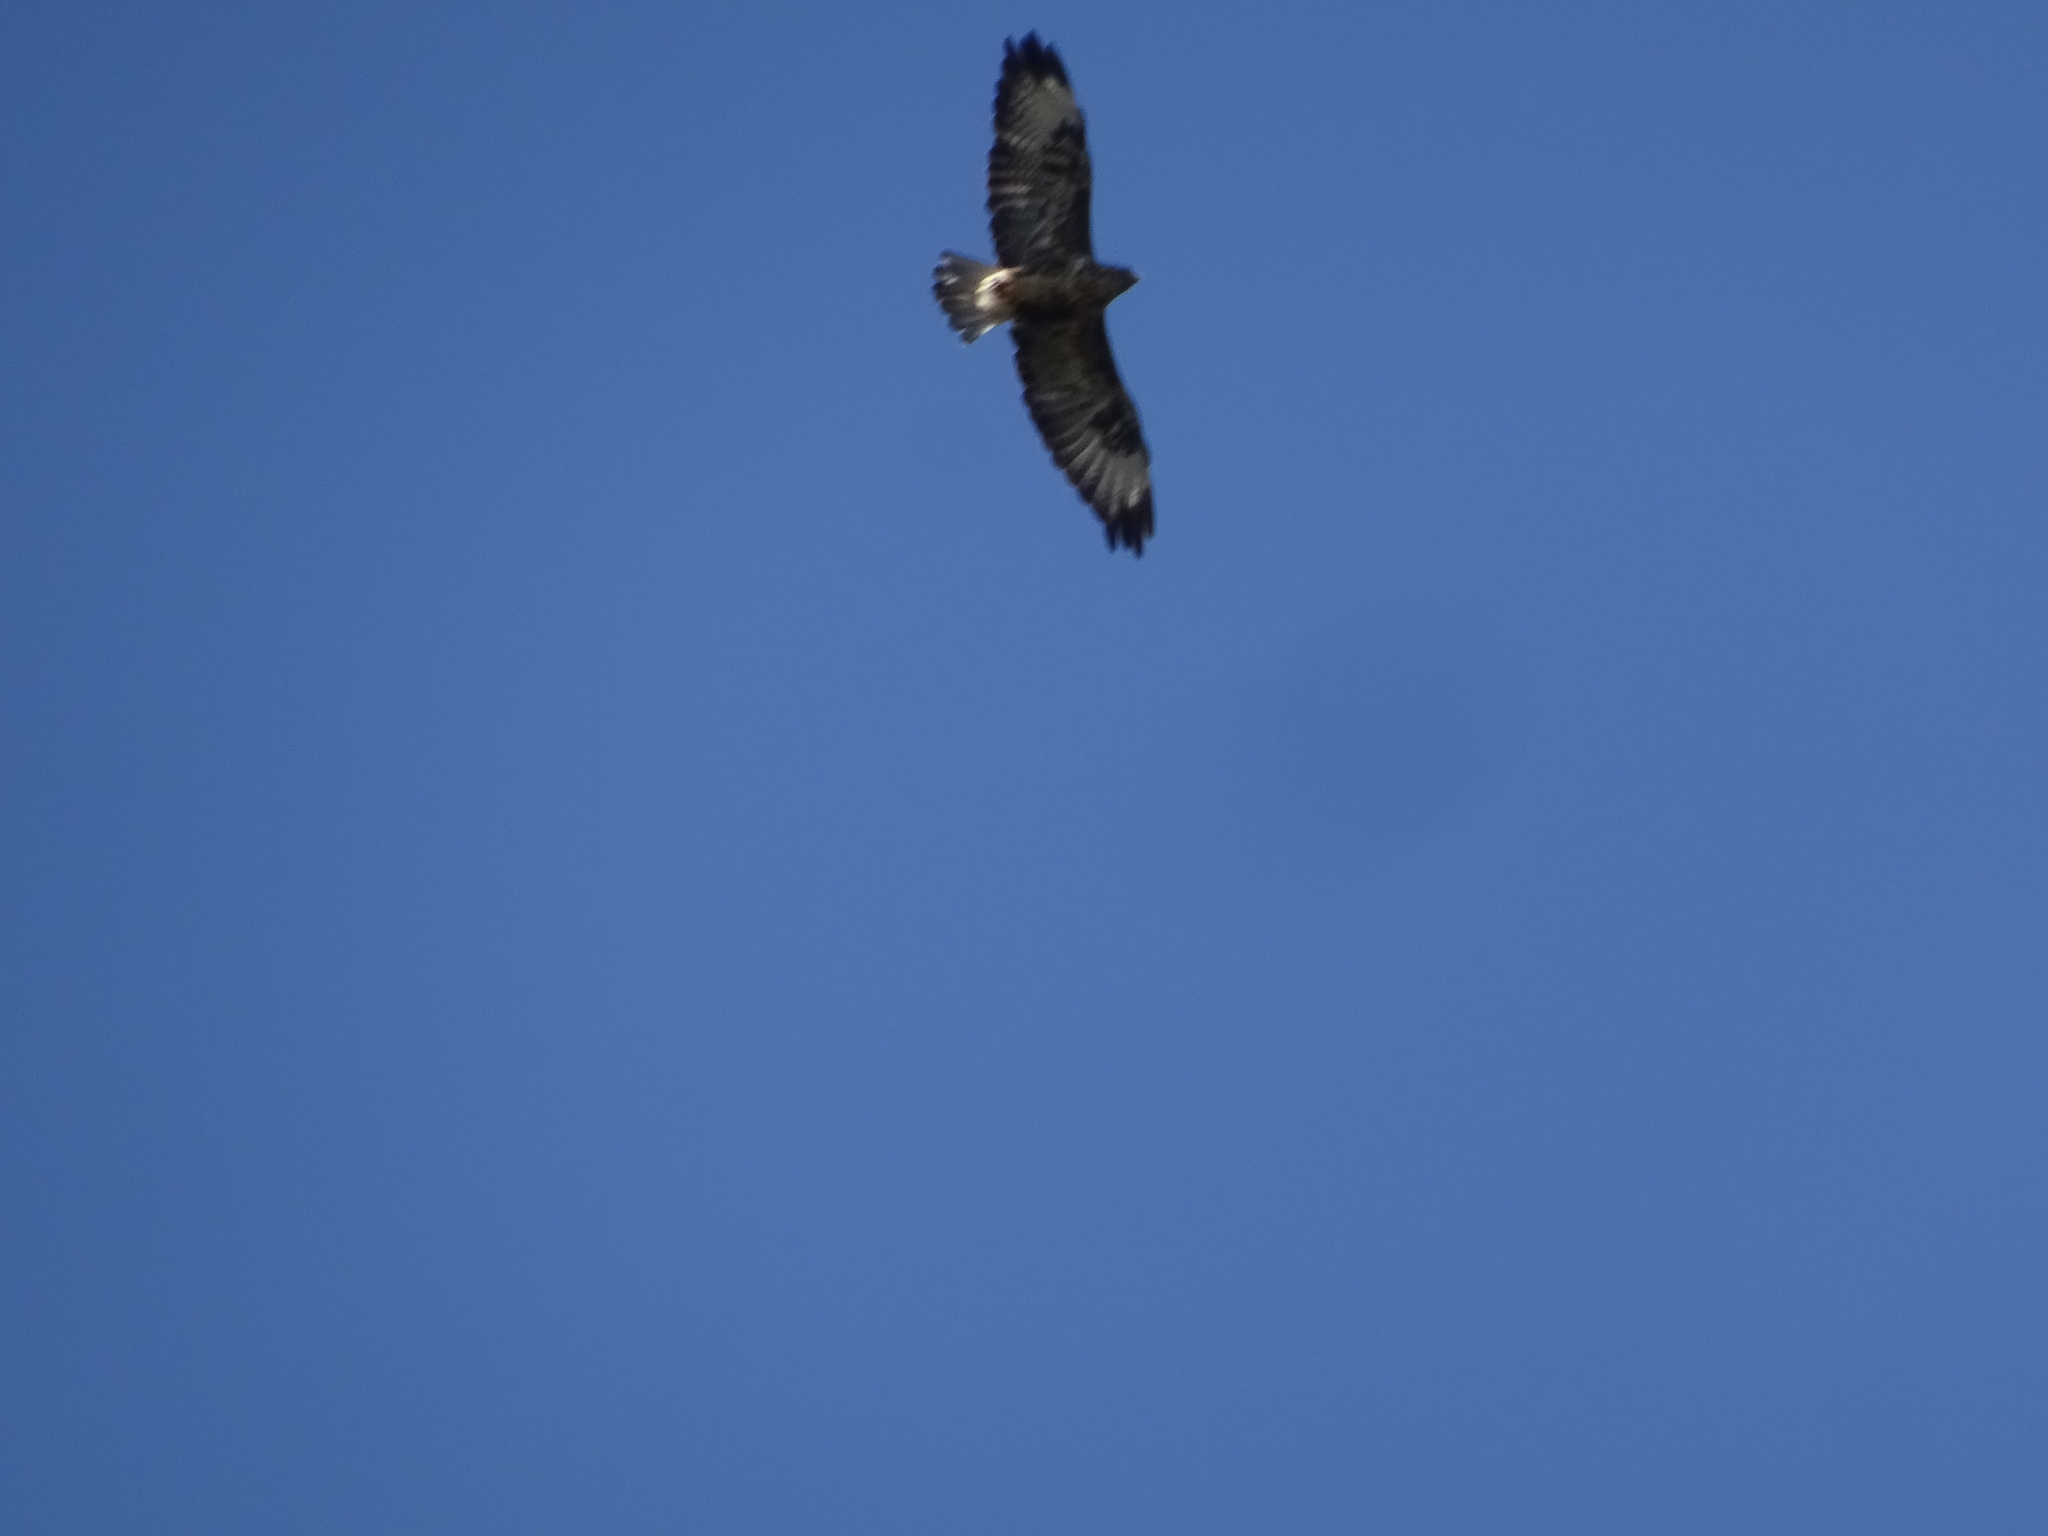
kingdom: Animalia
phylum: Chordata
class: Aves
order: Accipitriformes
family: Accipitridae
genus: Buteo
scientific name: Buteo buteo
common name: Common buzzard
